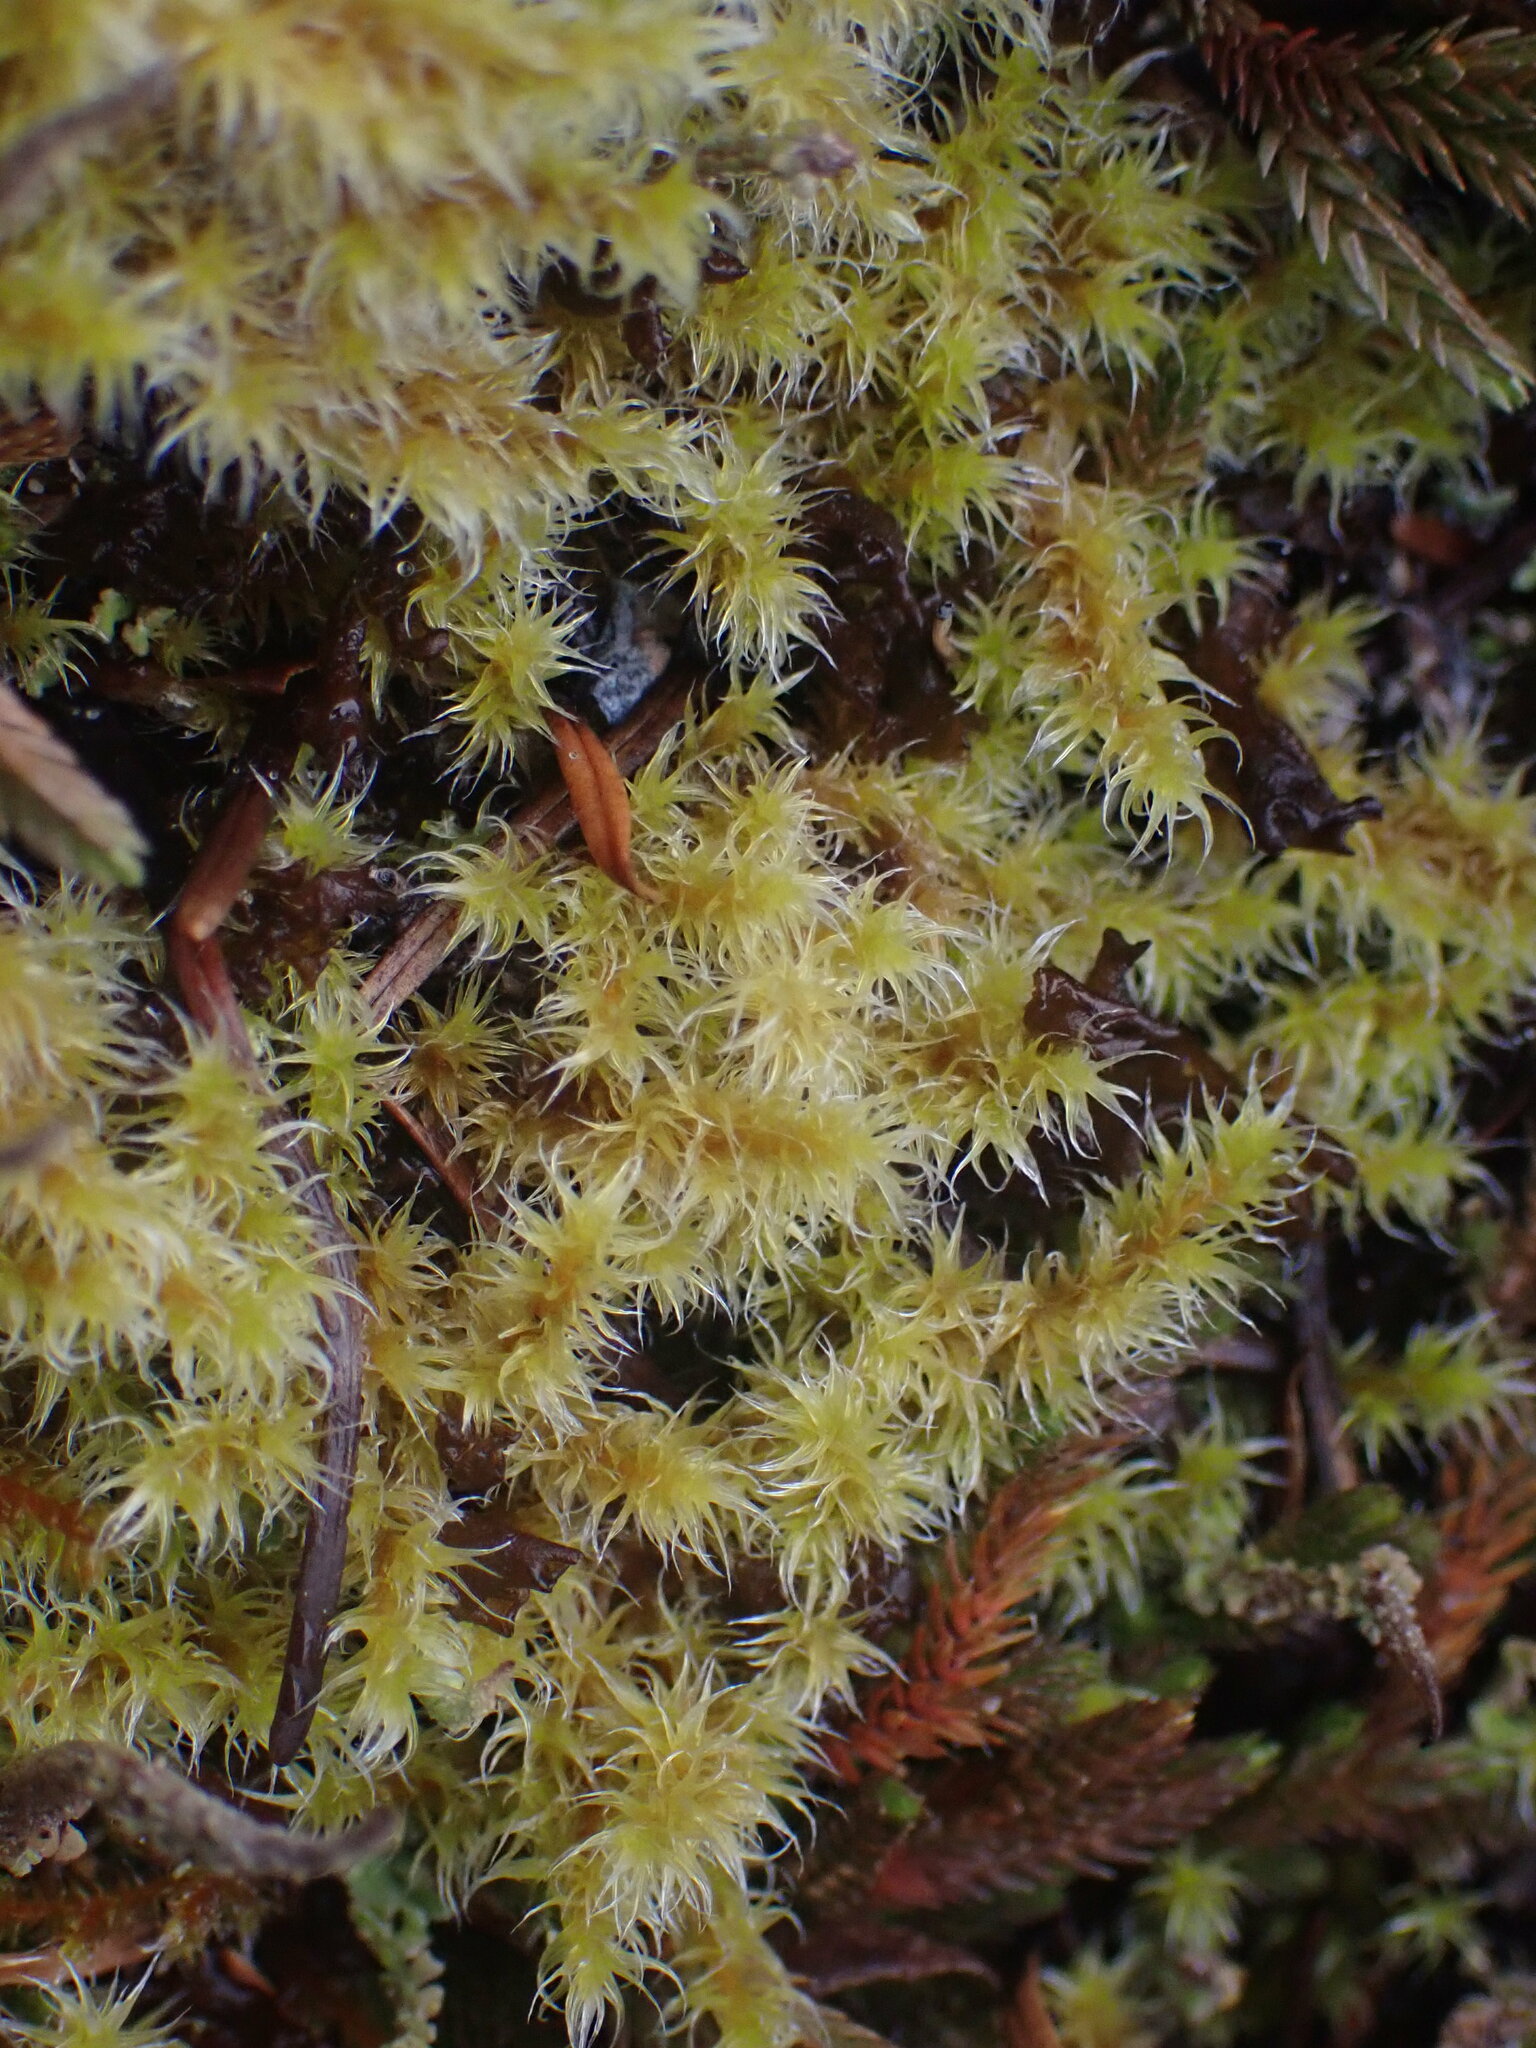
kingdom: Plantae
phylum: Bryophyta
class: Bryopsida
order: Grimmiales
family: Grimmiaceae
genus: Niphotrichum
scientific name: Niphotrichum elongatum
